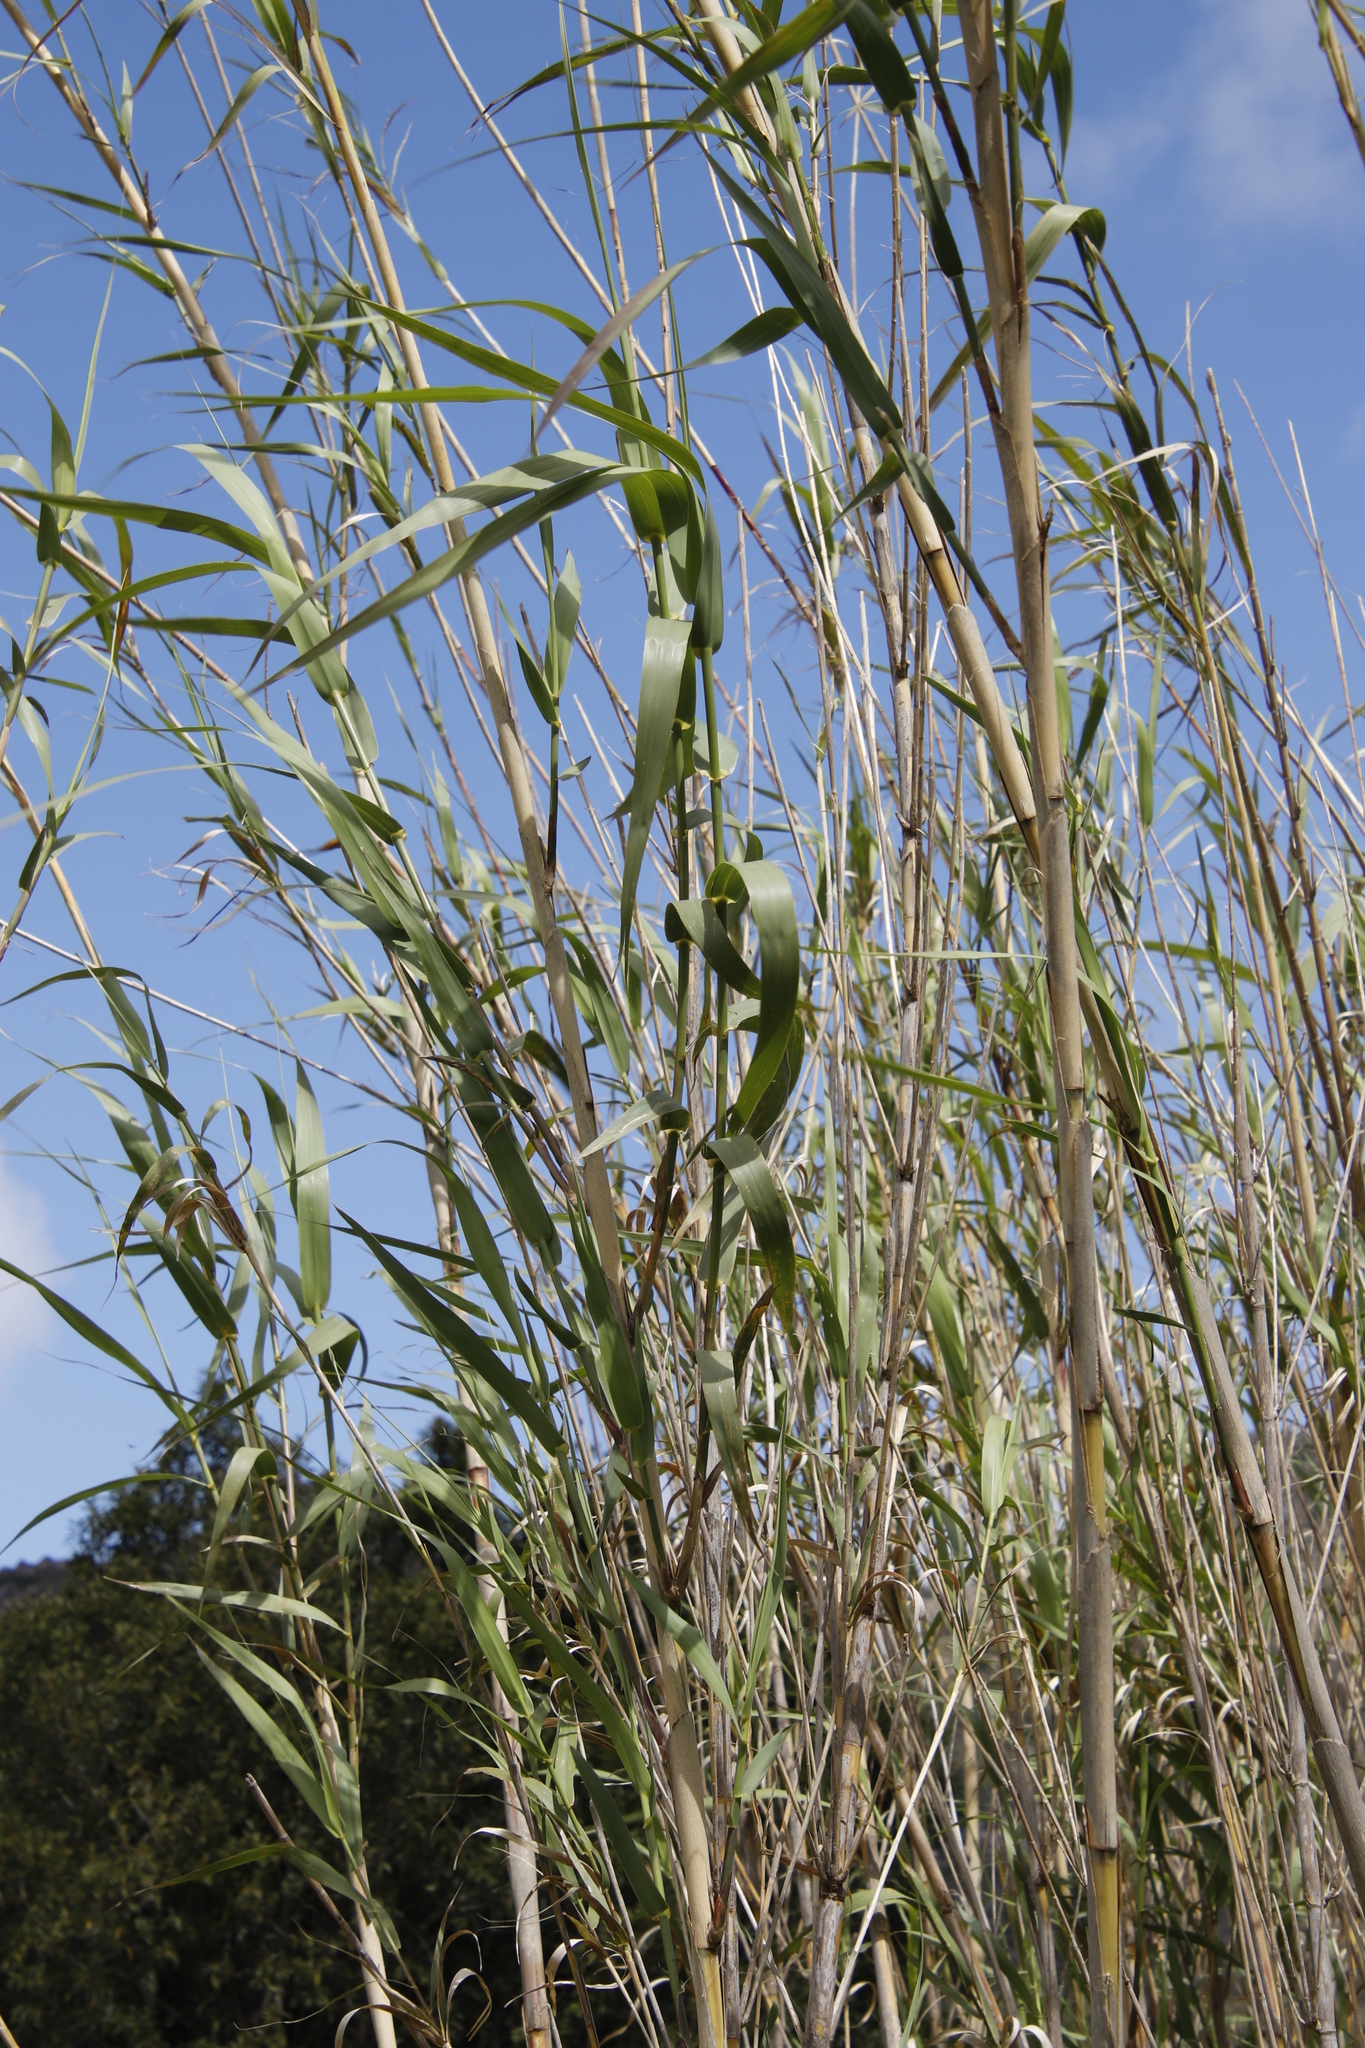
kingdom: Plantae
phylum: Tracheophyta
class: Liliopsida
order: Poales
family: Poaceae
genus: Phragmites
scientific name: Phragmites australis
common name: Common reed
